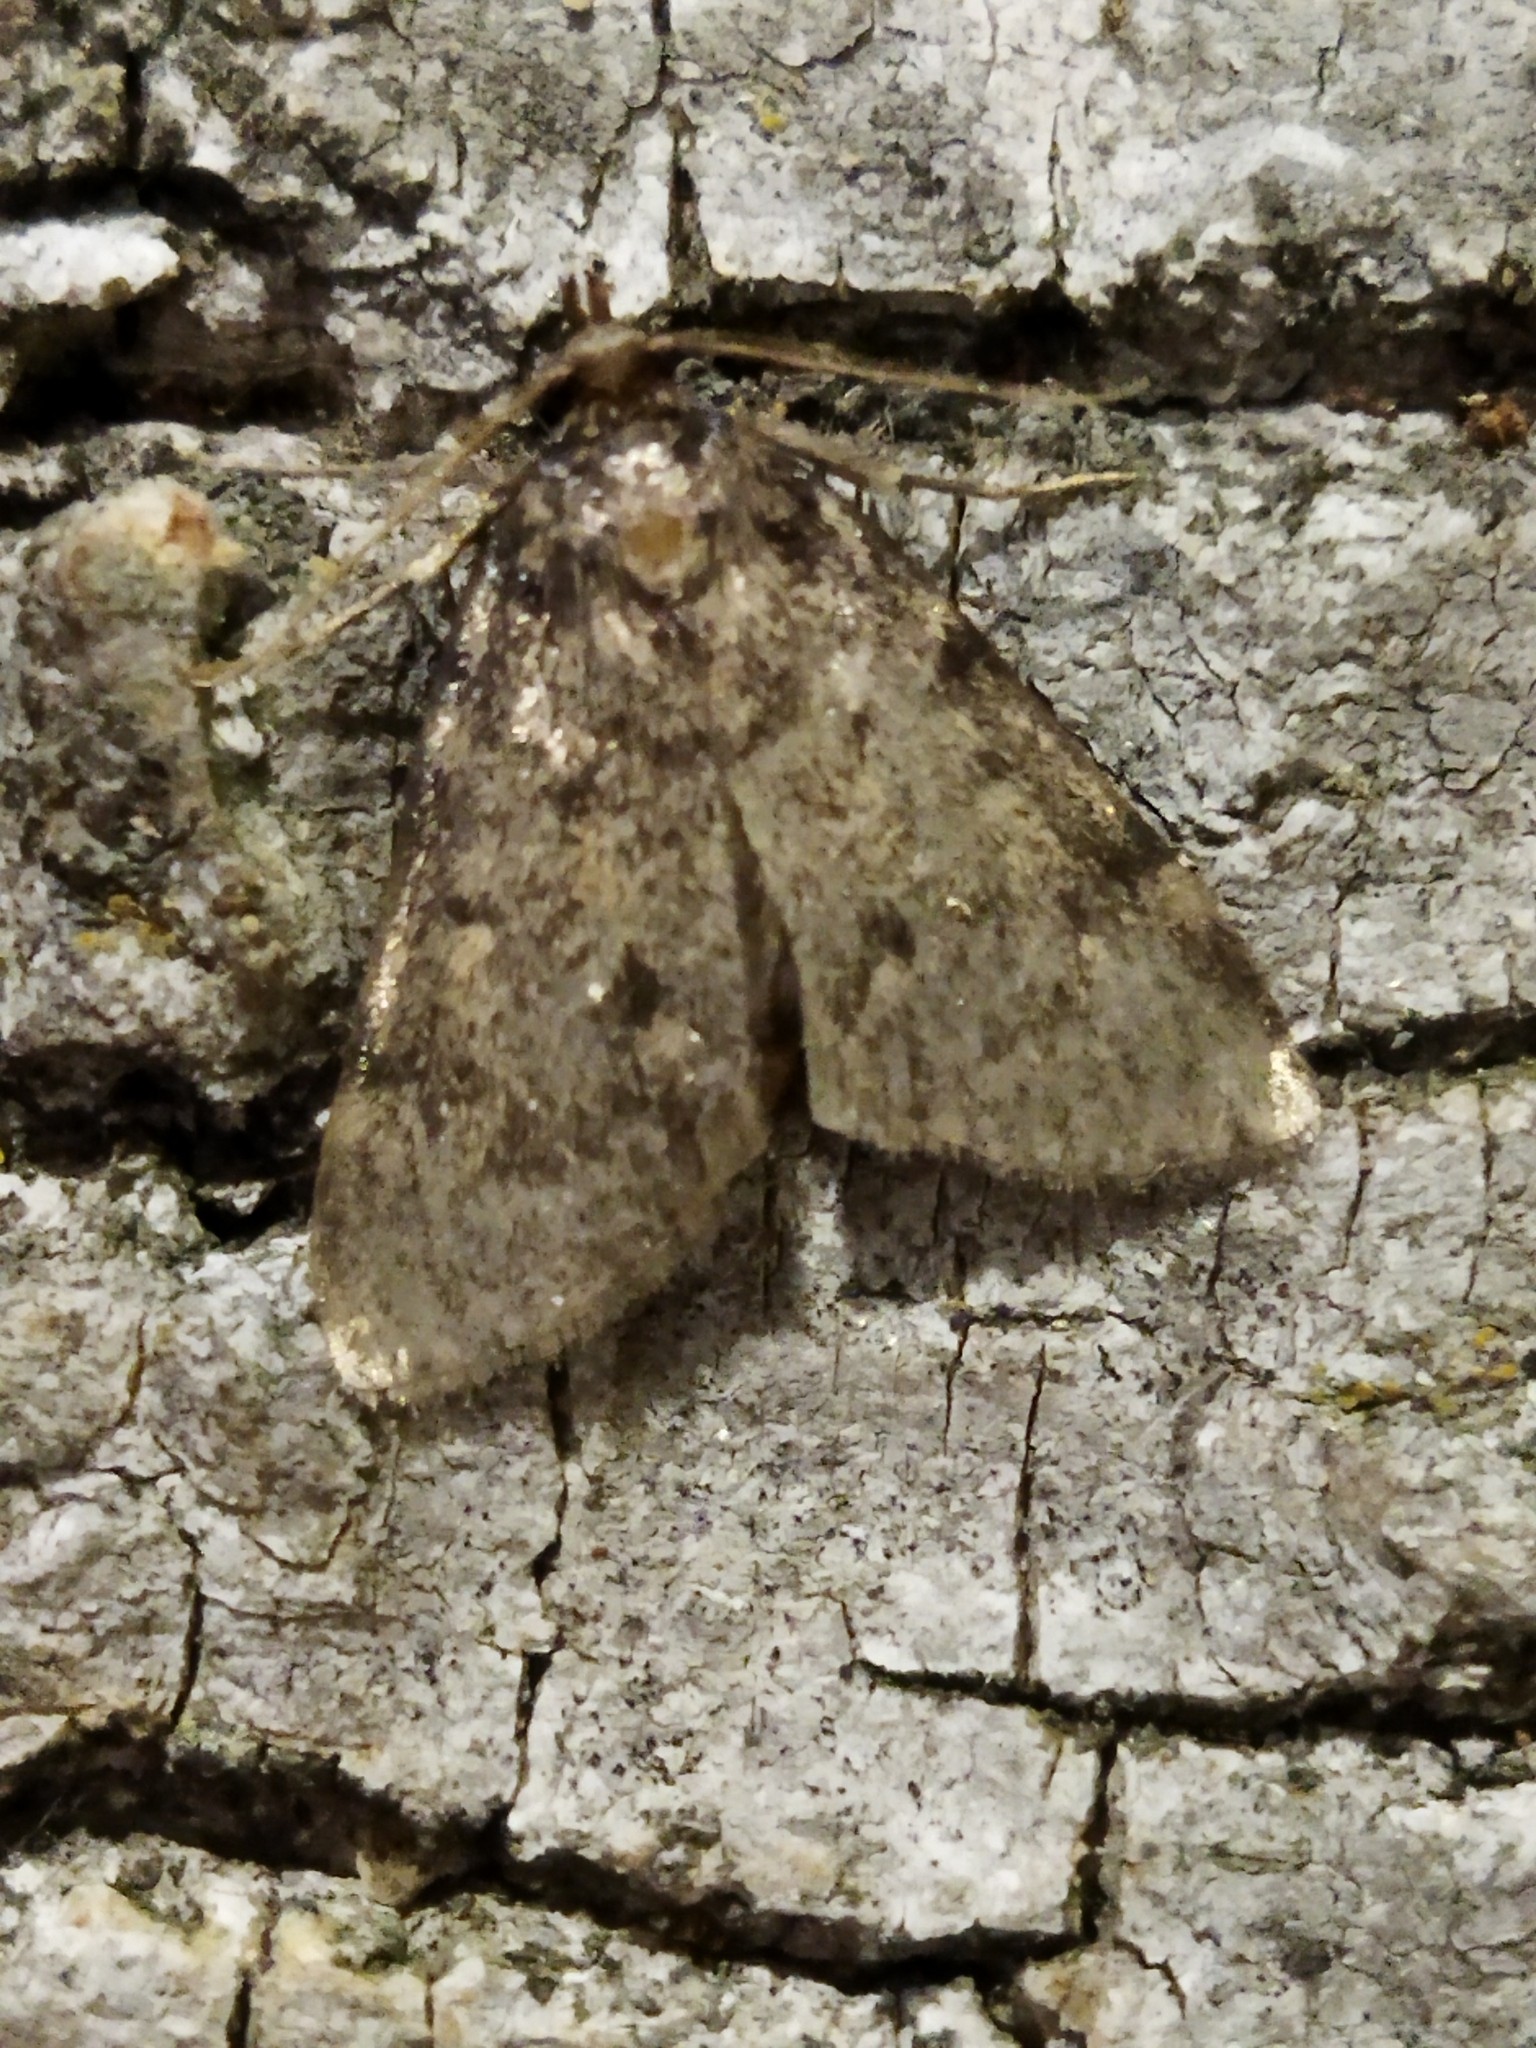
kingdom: Animalia
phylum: Arthropoda
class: Insecta
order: Lepidoptera
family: Pyralidae
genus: Aglossa
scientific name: Aglossa pinguinalis
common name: Large tabby
